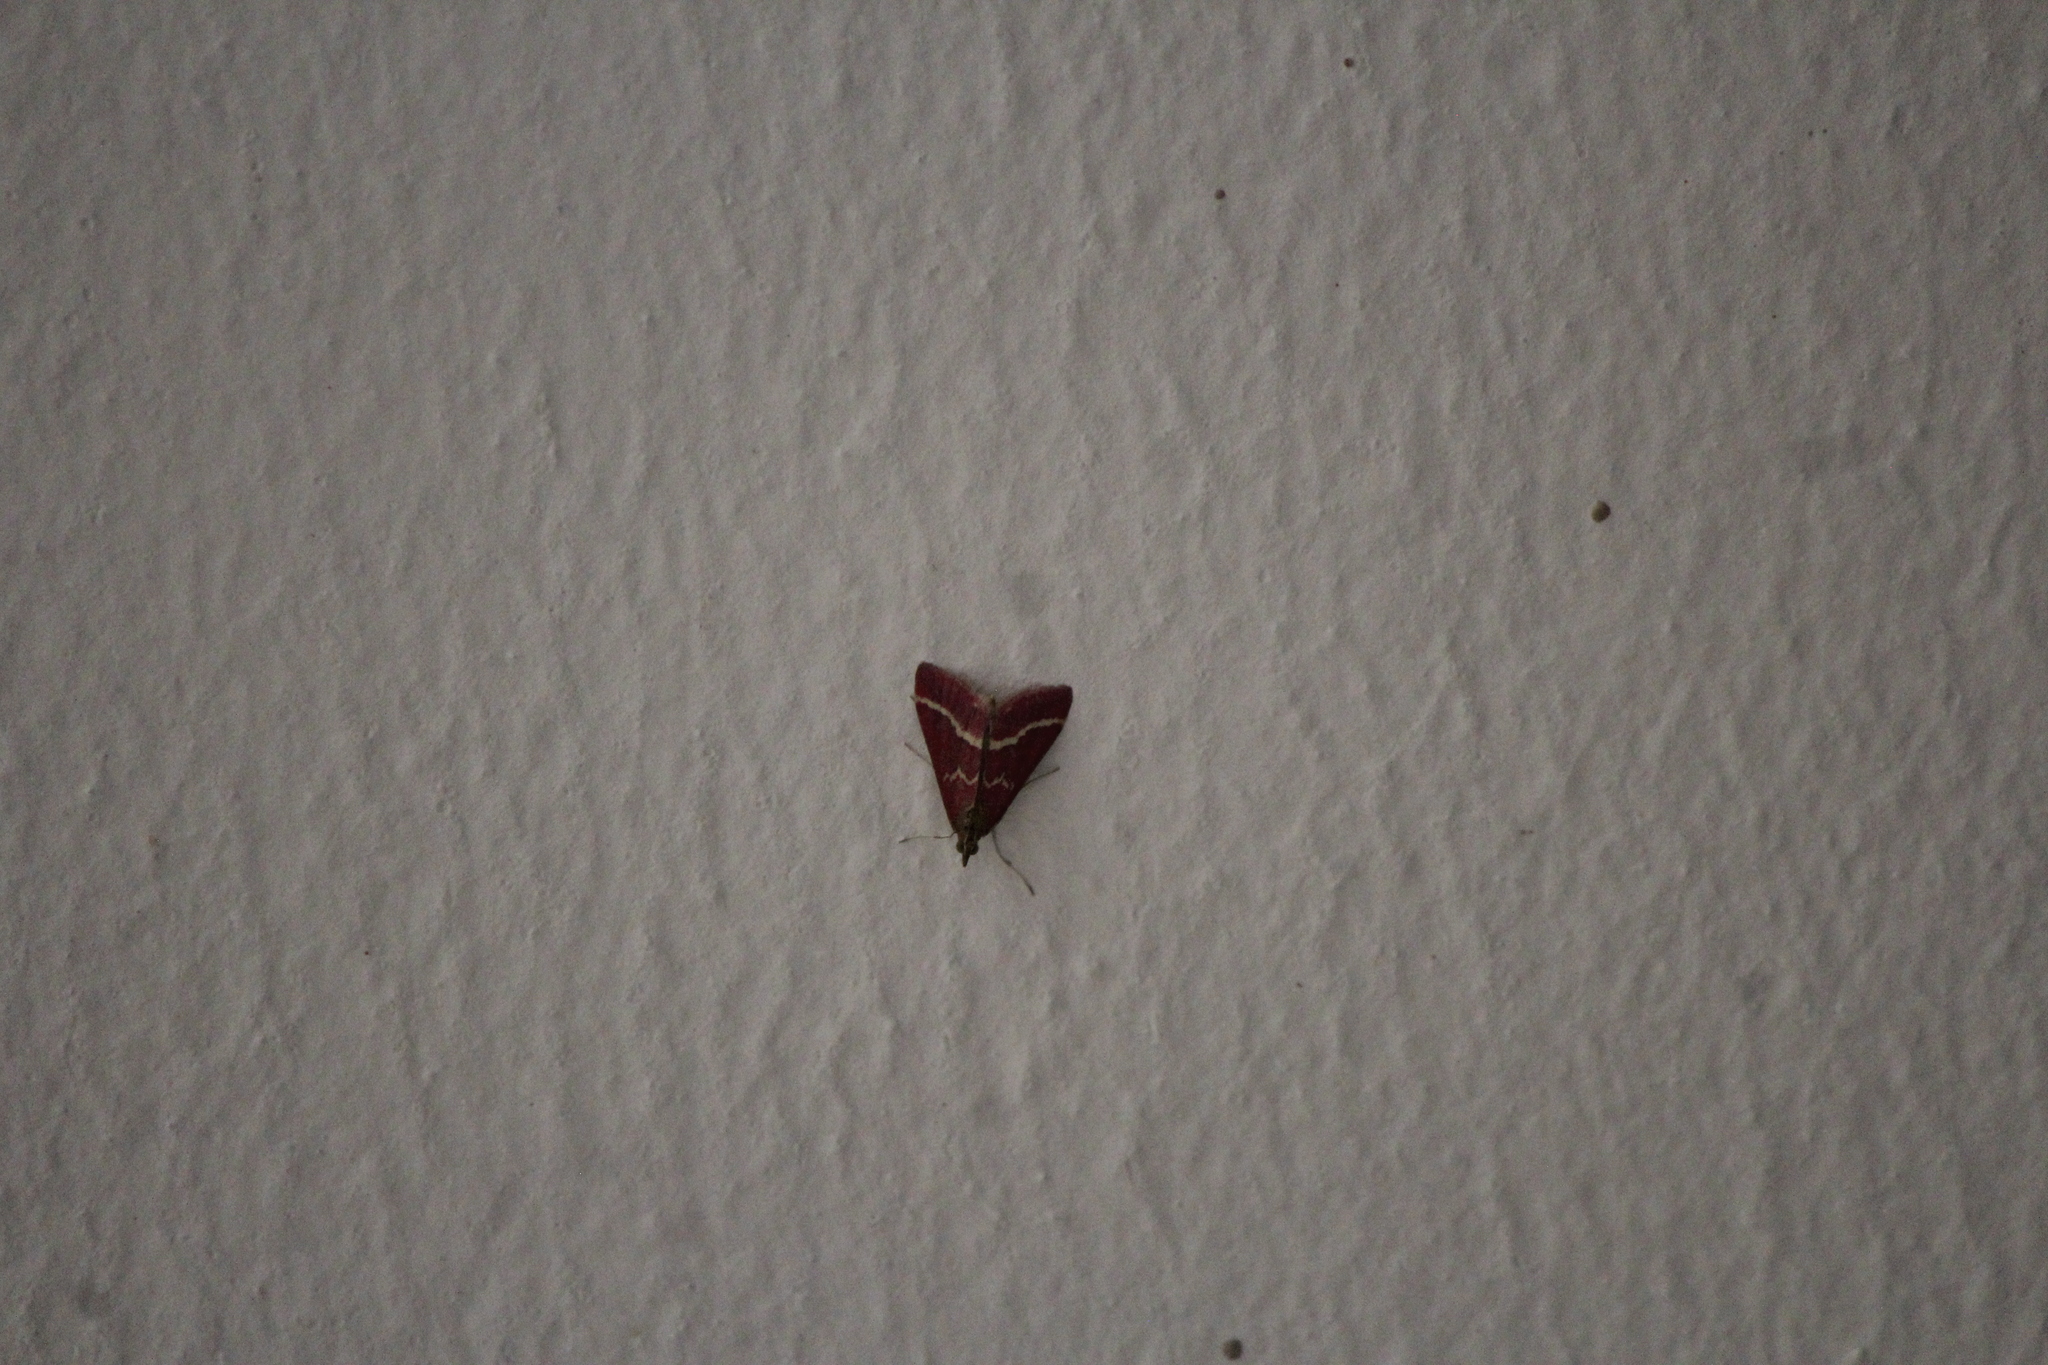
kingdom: Animalia
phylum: Arthropoda
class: Insecta
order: Lepidoptera
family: Crambidae
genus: Pyrausta
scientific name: Pyrausta volupialis
